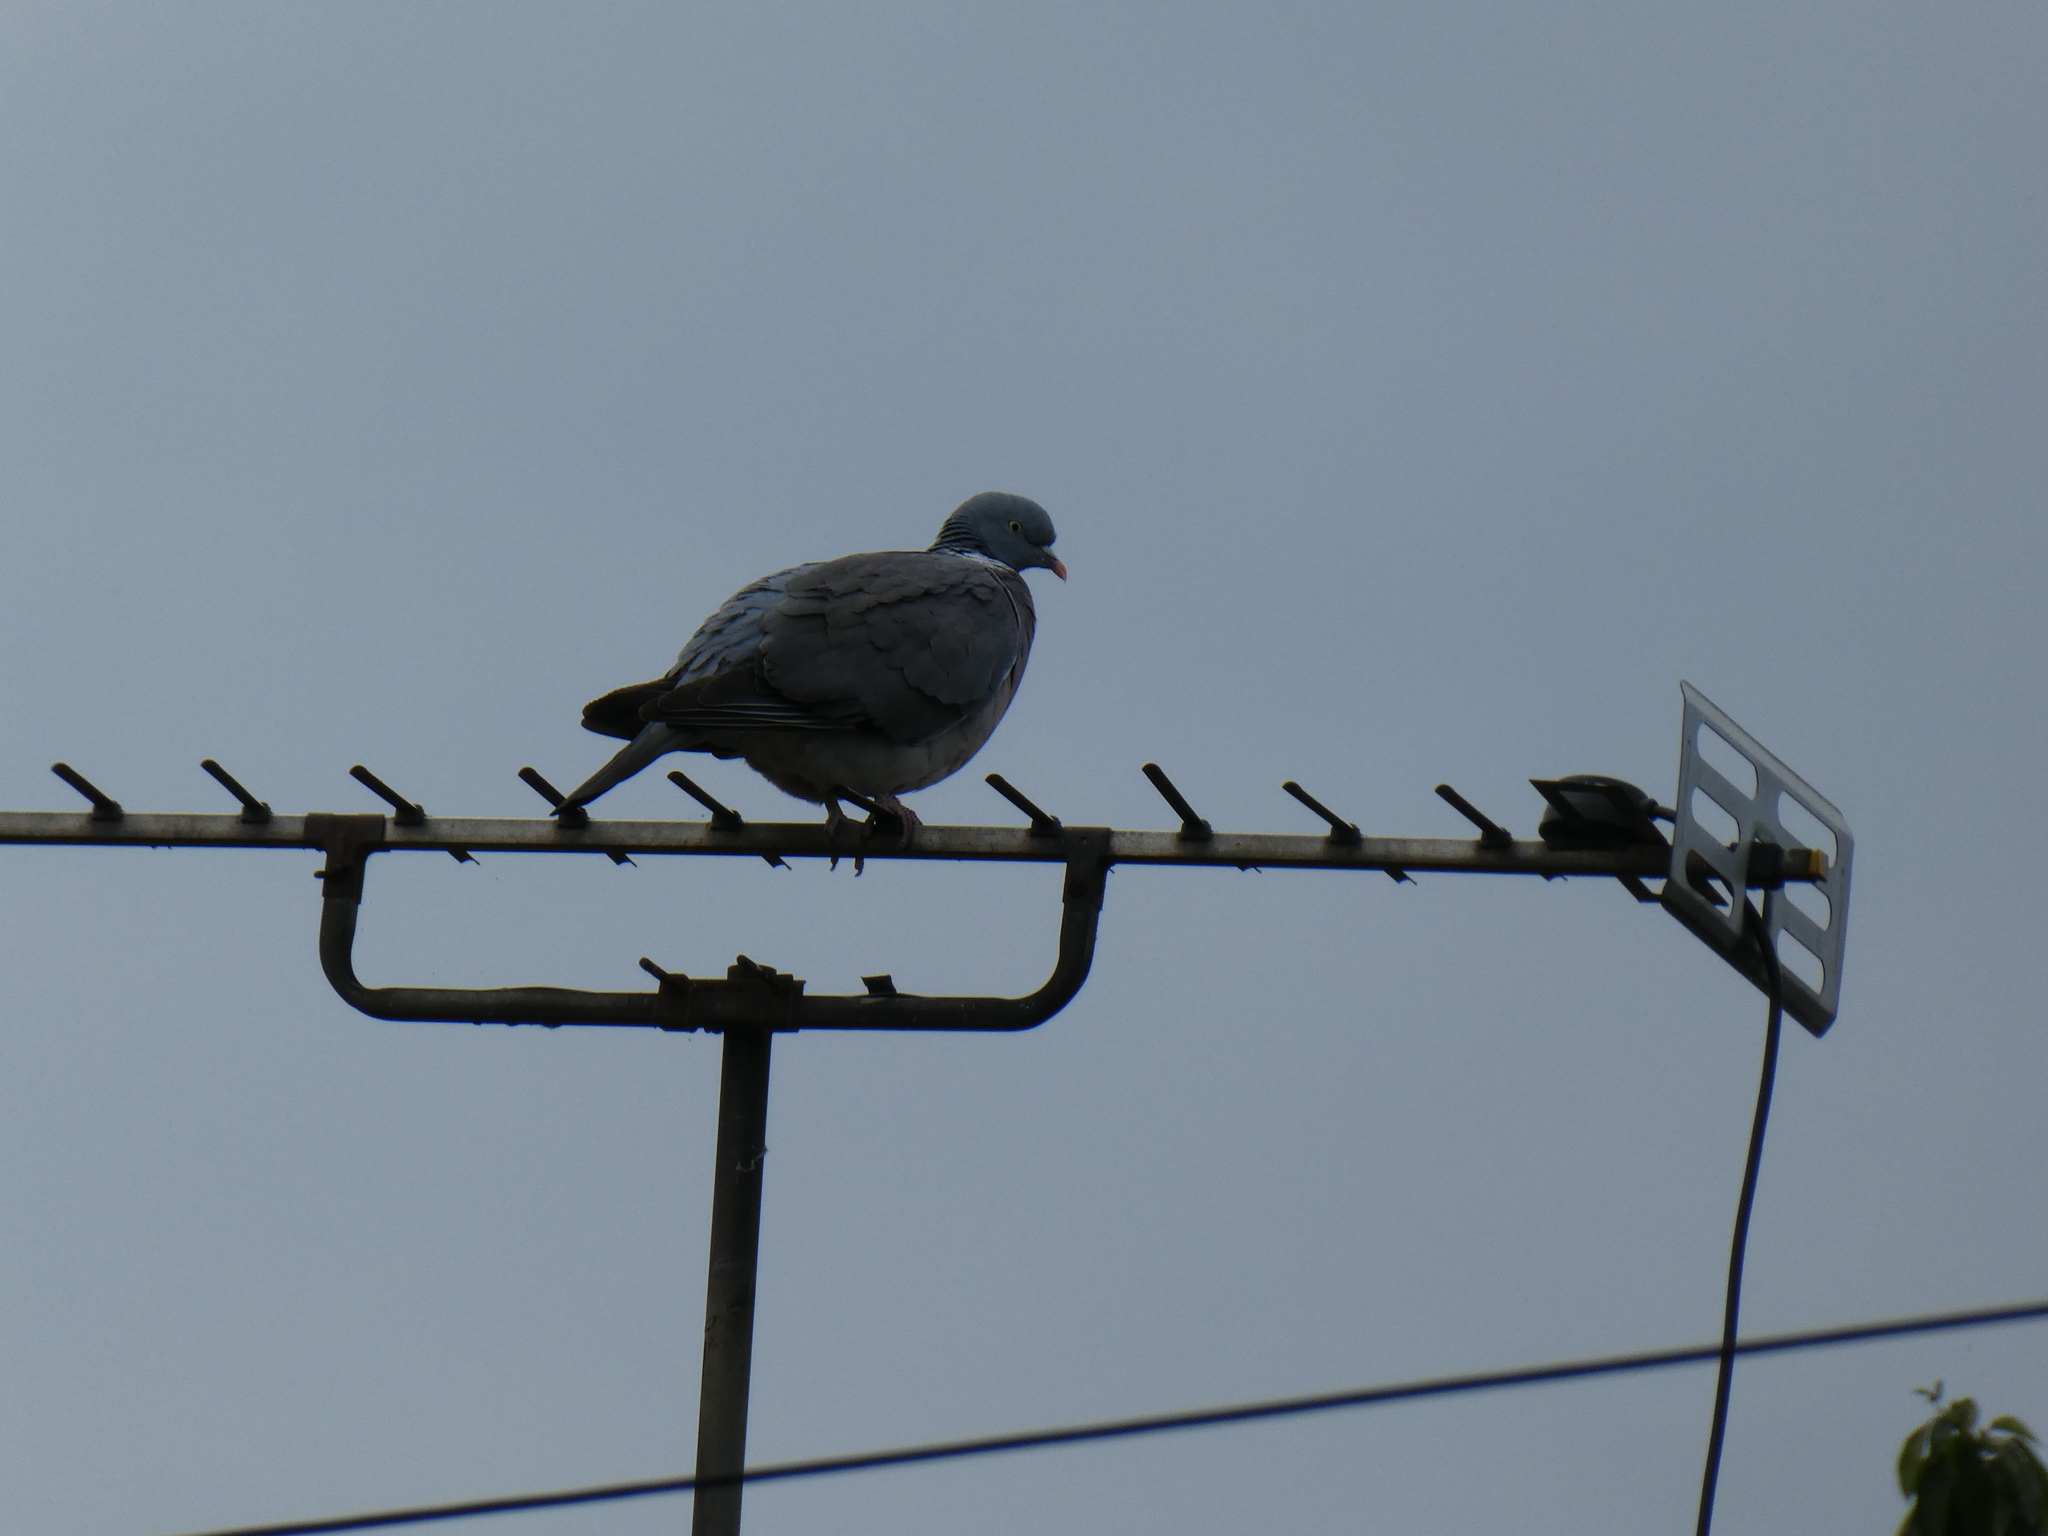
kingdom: Animalia
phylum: Chordata
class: Aves
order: Columbiformes
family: Columbidae
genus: Columba
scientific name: Columba palumbus
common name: Common wood pigeon
